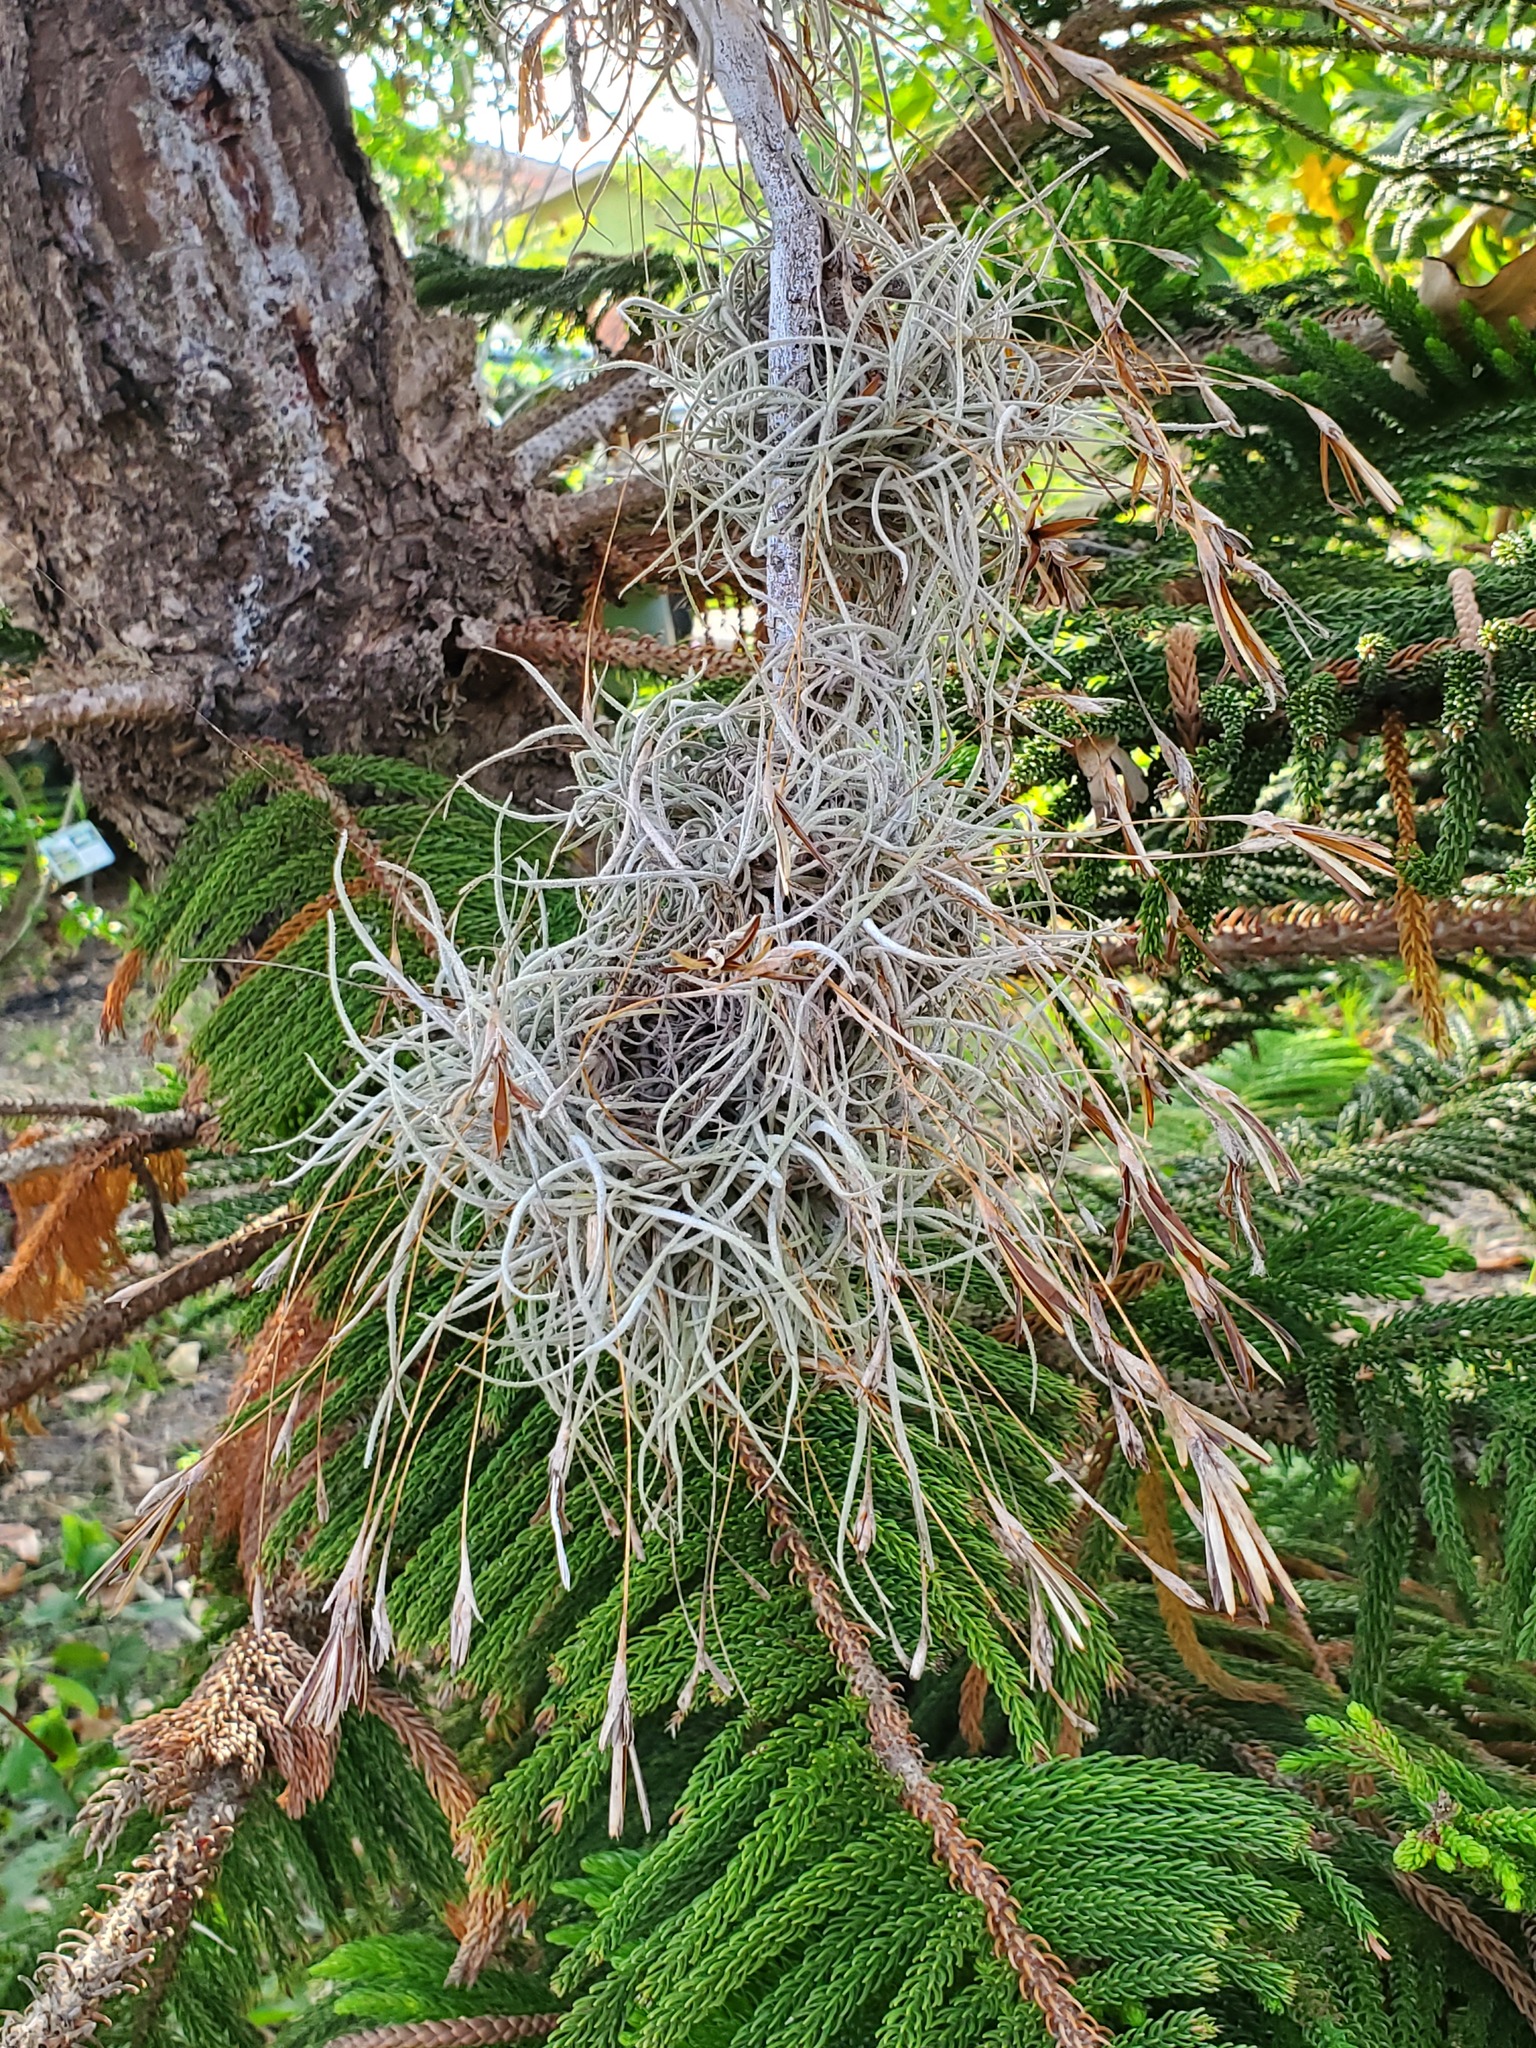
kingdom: Plantae
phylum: Tracheophyta
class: Liliopsida
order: Poales
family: Bromeliaceae
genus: Tillandsia
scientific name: Tillandsia recurvata
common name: Small ballmoss
